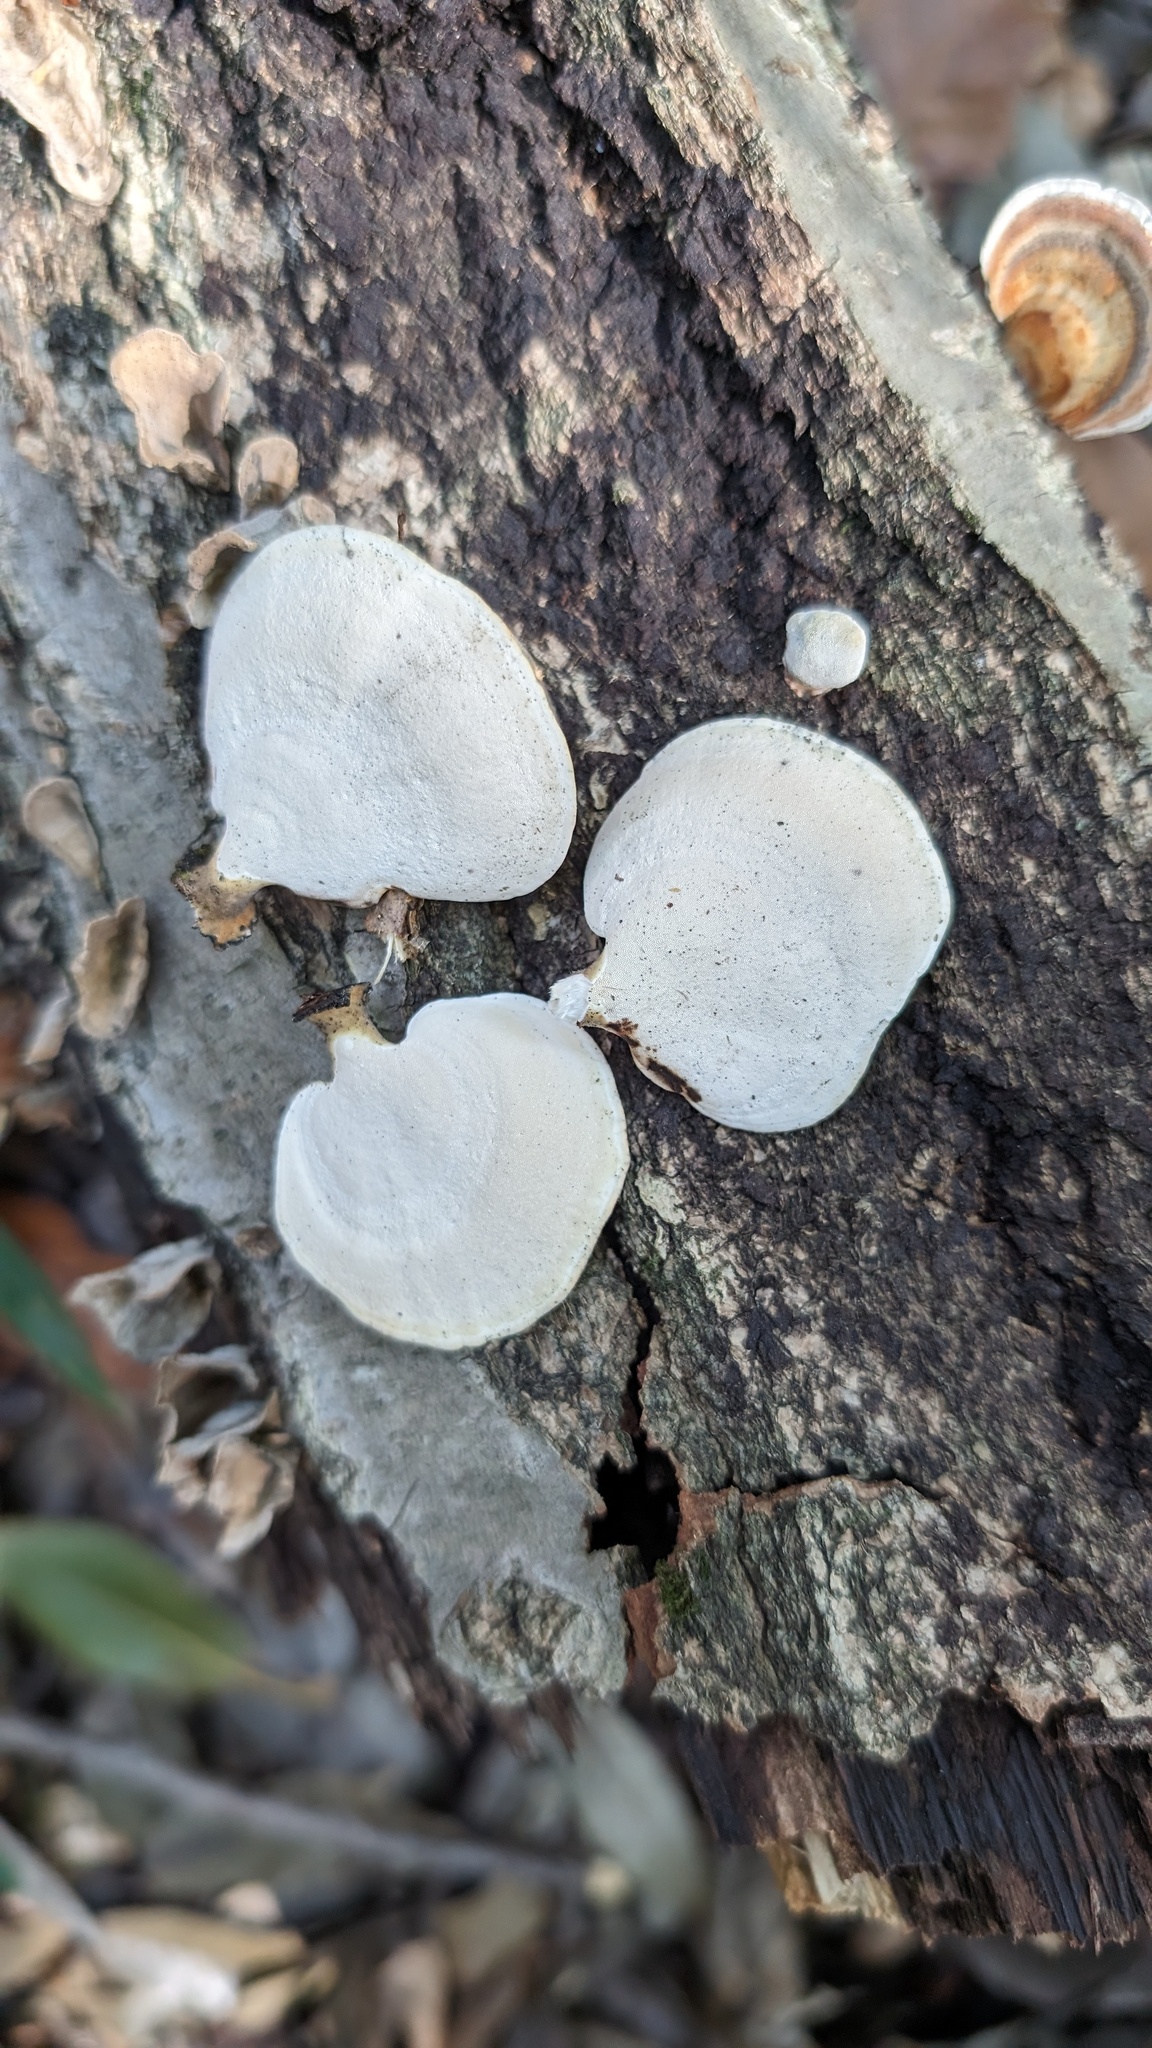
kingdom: Fungi
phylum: Basidiomycota
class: Agaricomycetes
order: Polyporales
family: Polyporaceae
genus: Microporus
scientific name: Microporus affinis
